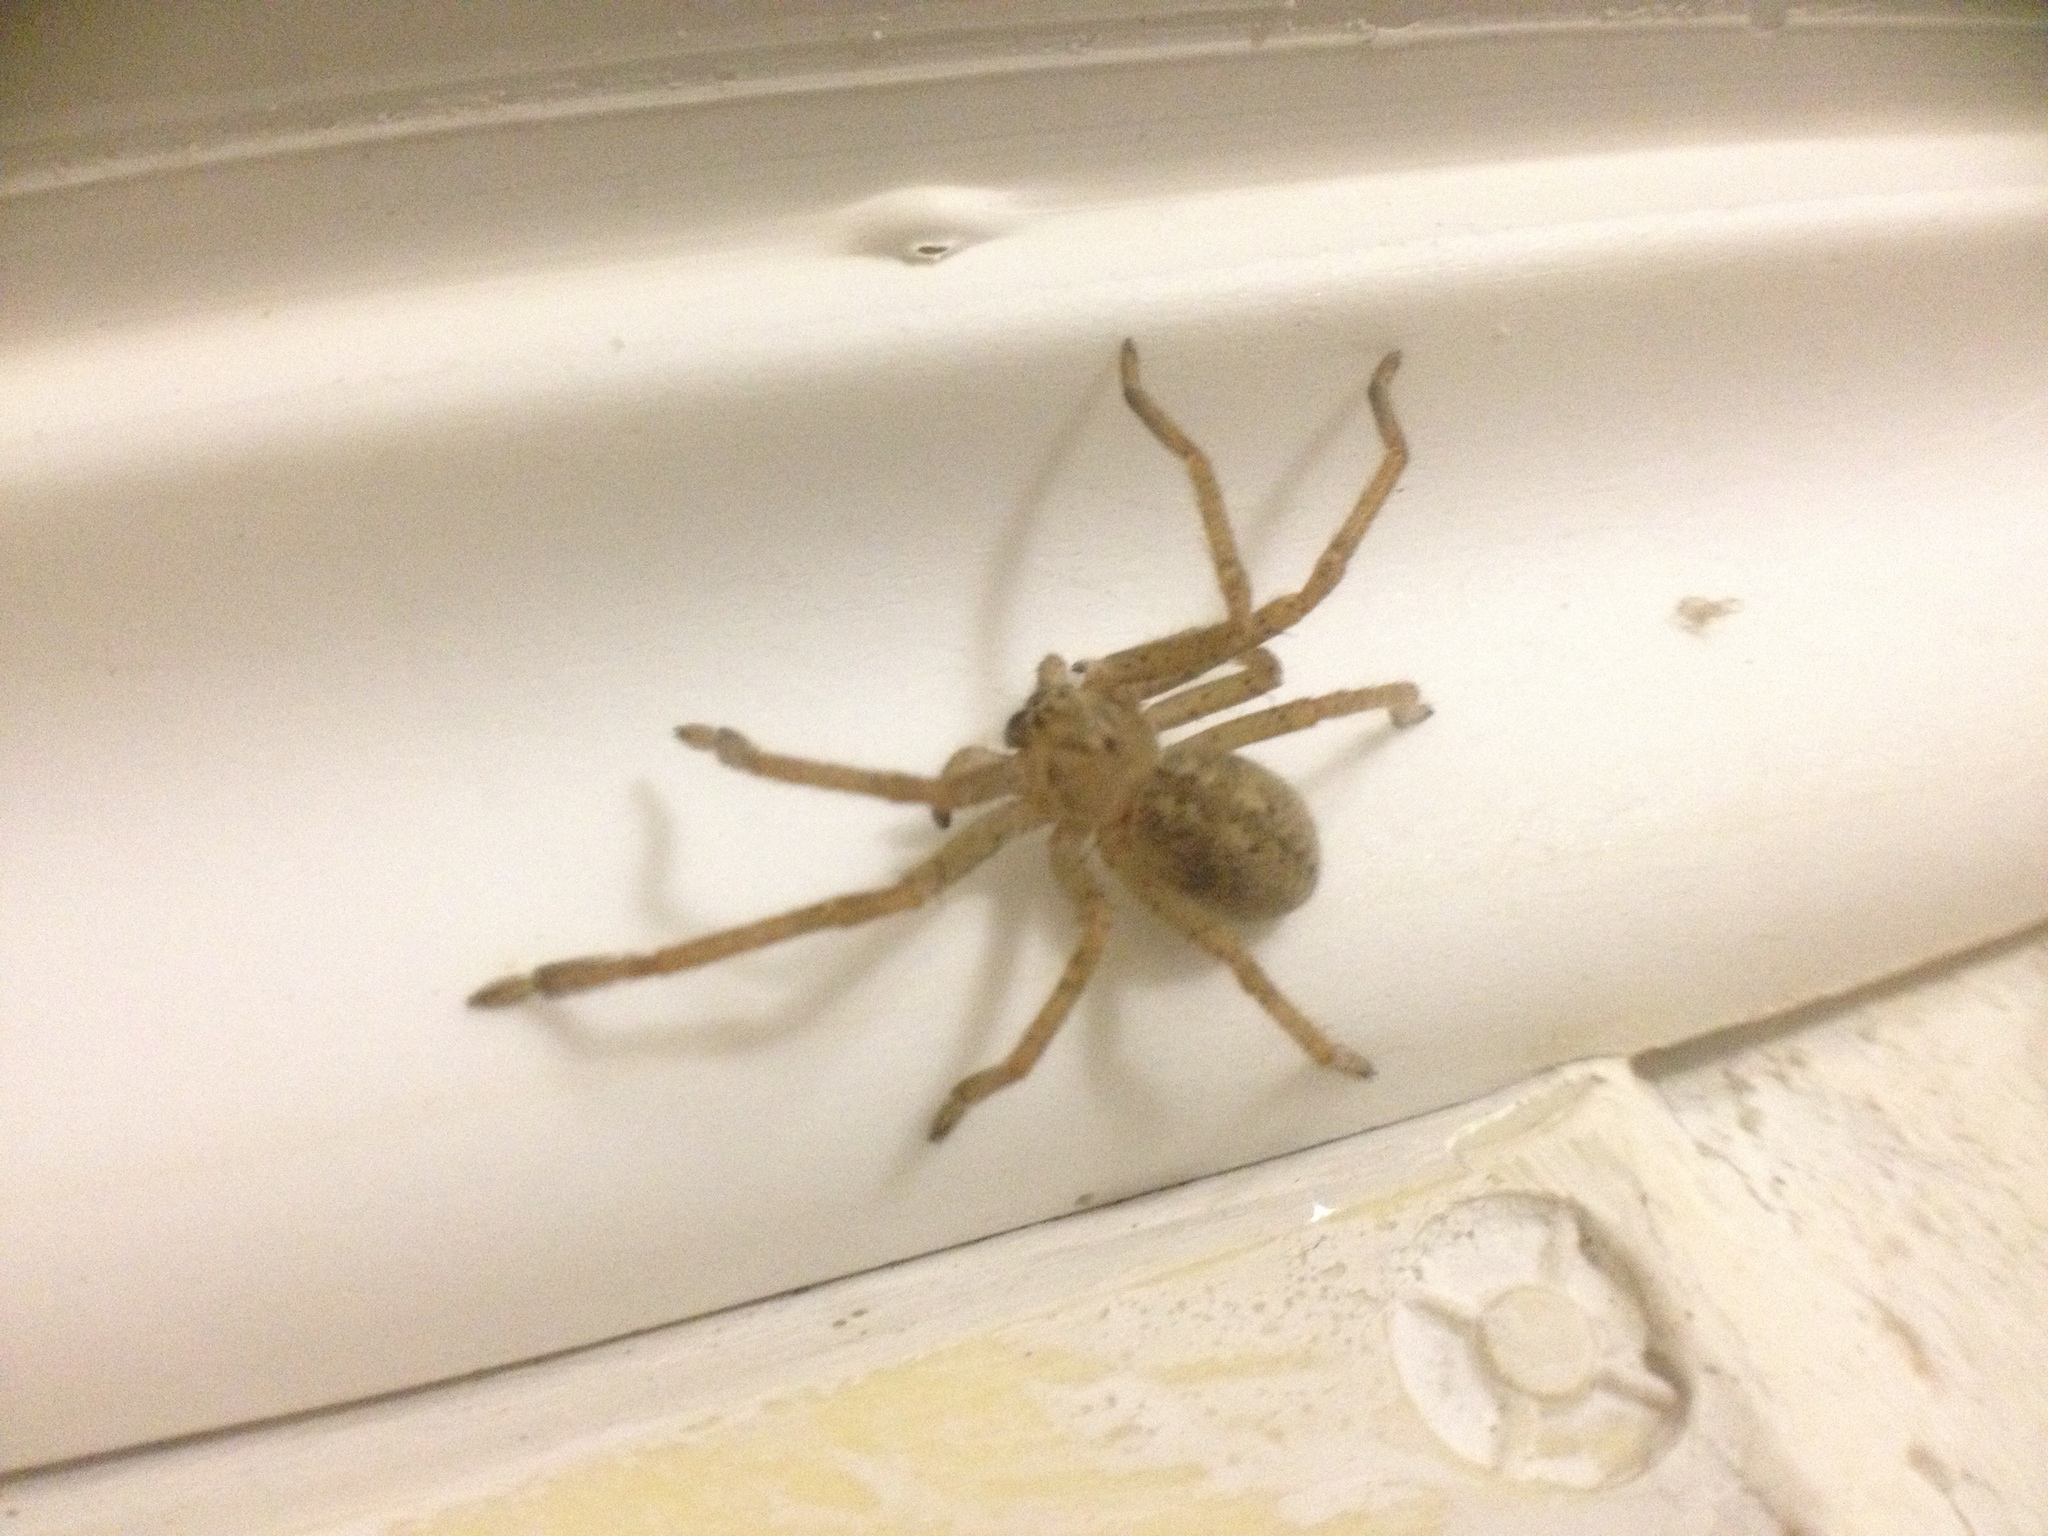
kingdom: Animalia
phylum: Arthropoda
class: Arachnida
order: Araneae
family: Sparassidae
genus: Olios
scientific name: Olios sericeus
